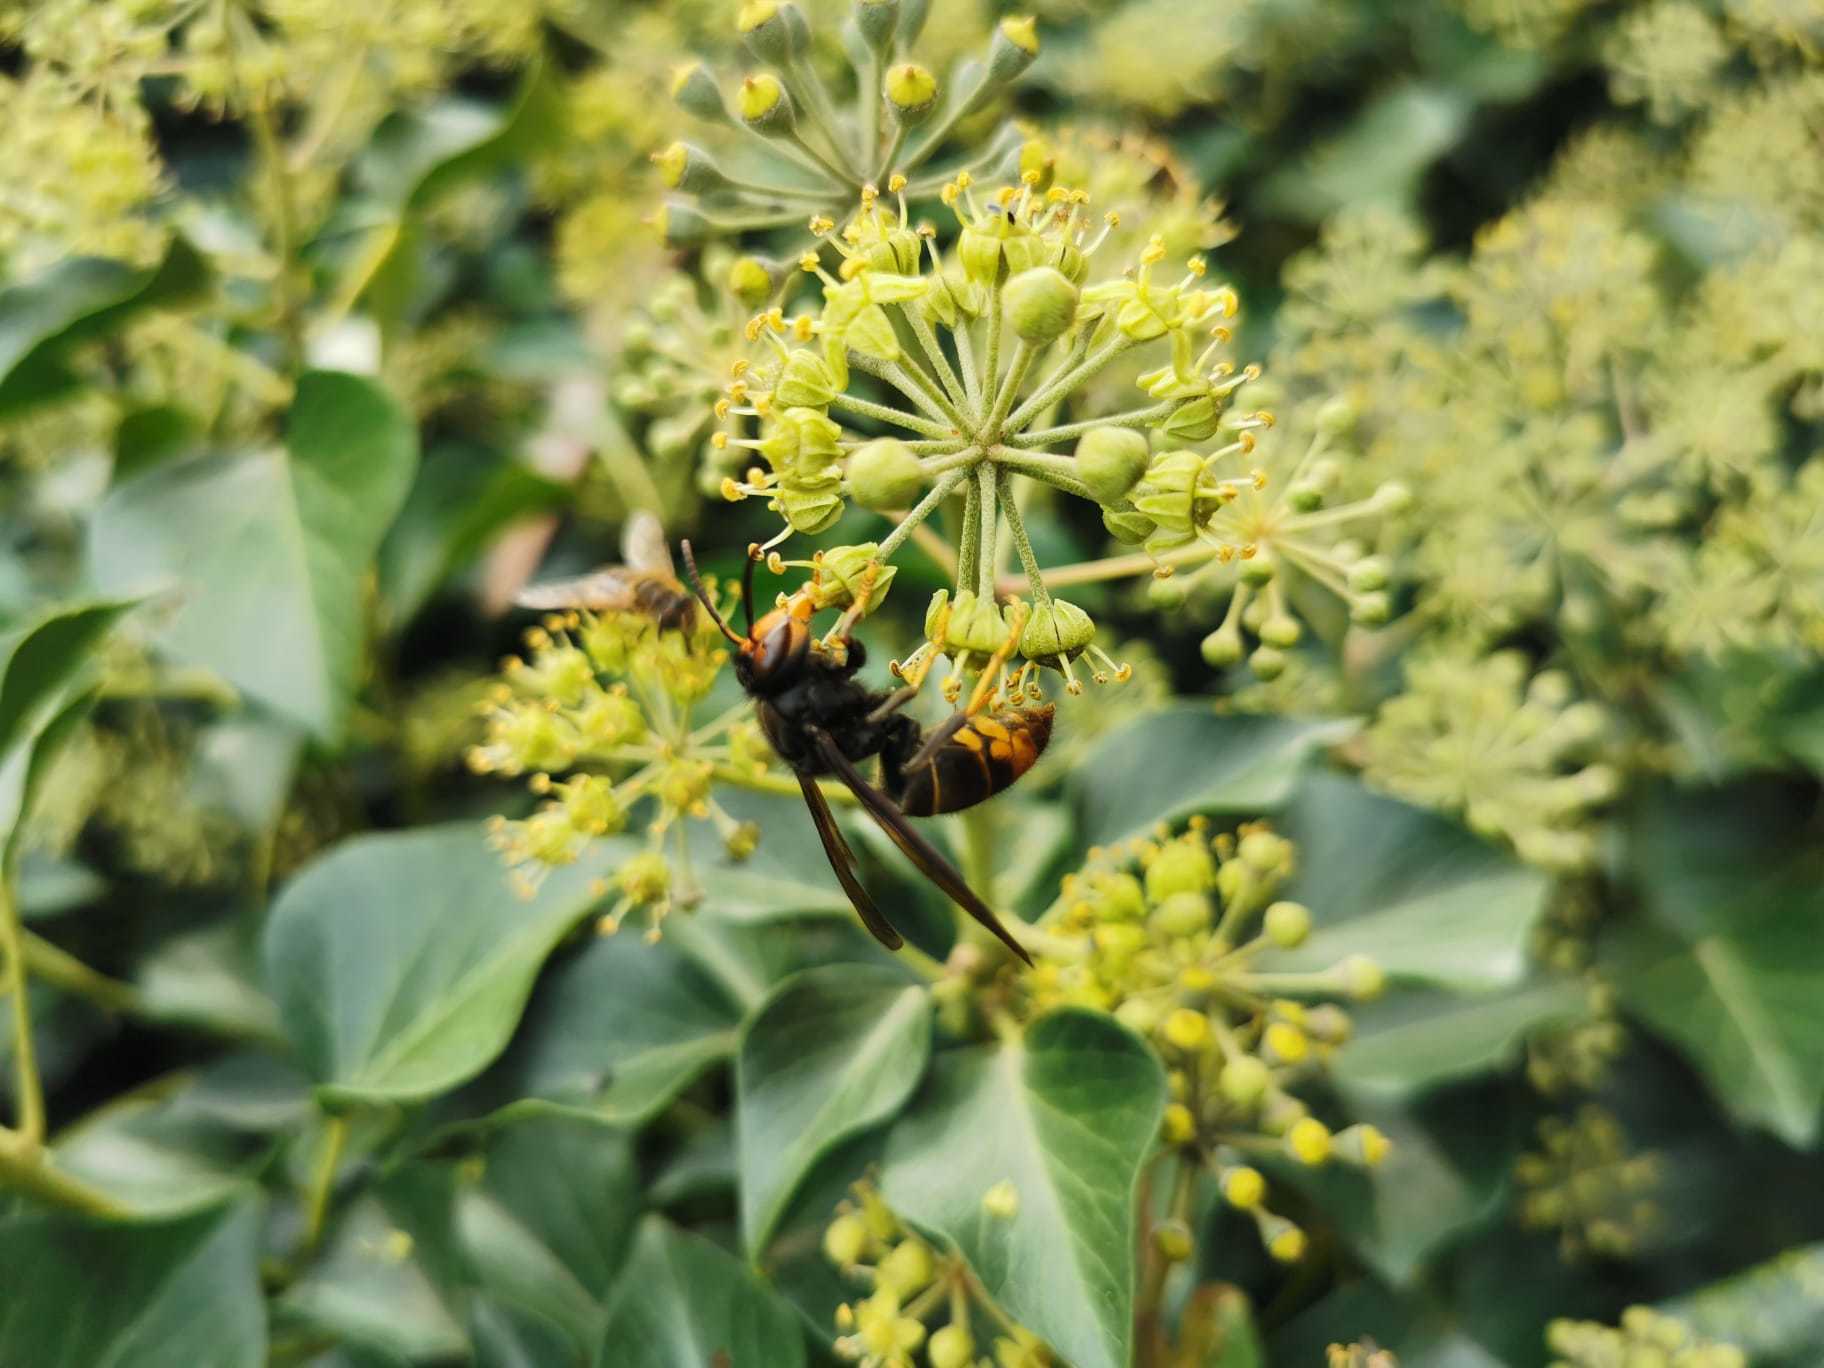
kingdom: Animalia
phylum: Arthropoda
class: Insecta
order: Hymenoptera
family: Vespidae
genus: Vespa
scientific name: Vespa velutina
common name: Asian hornet
